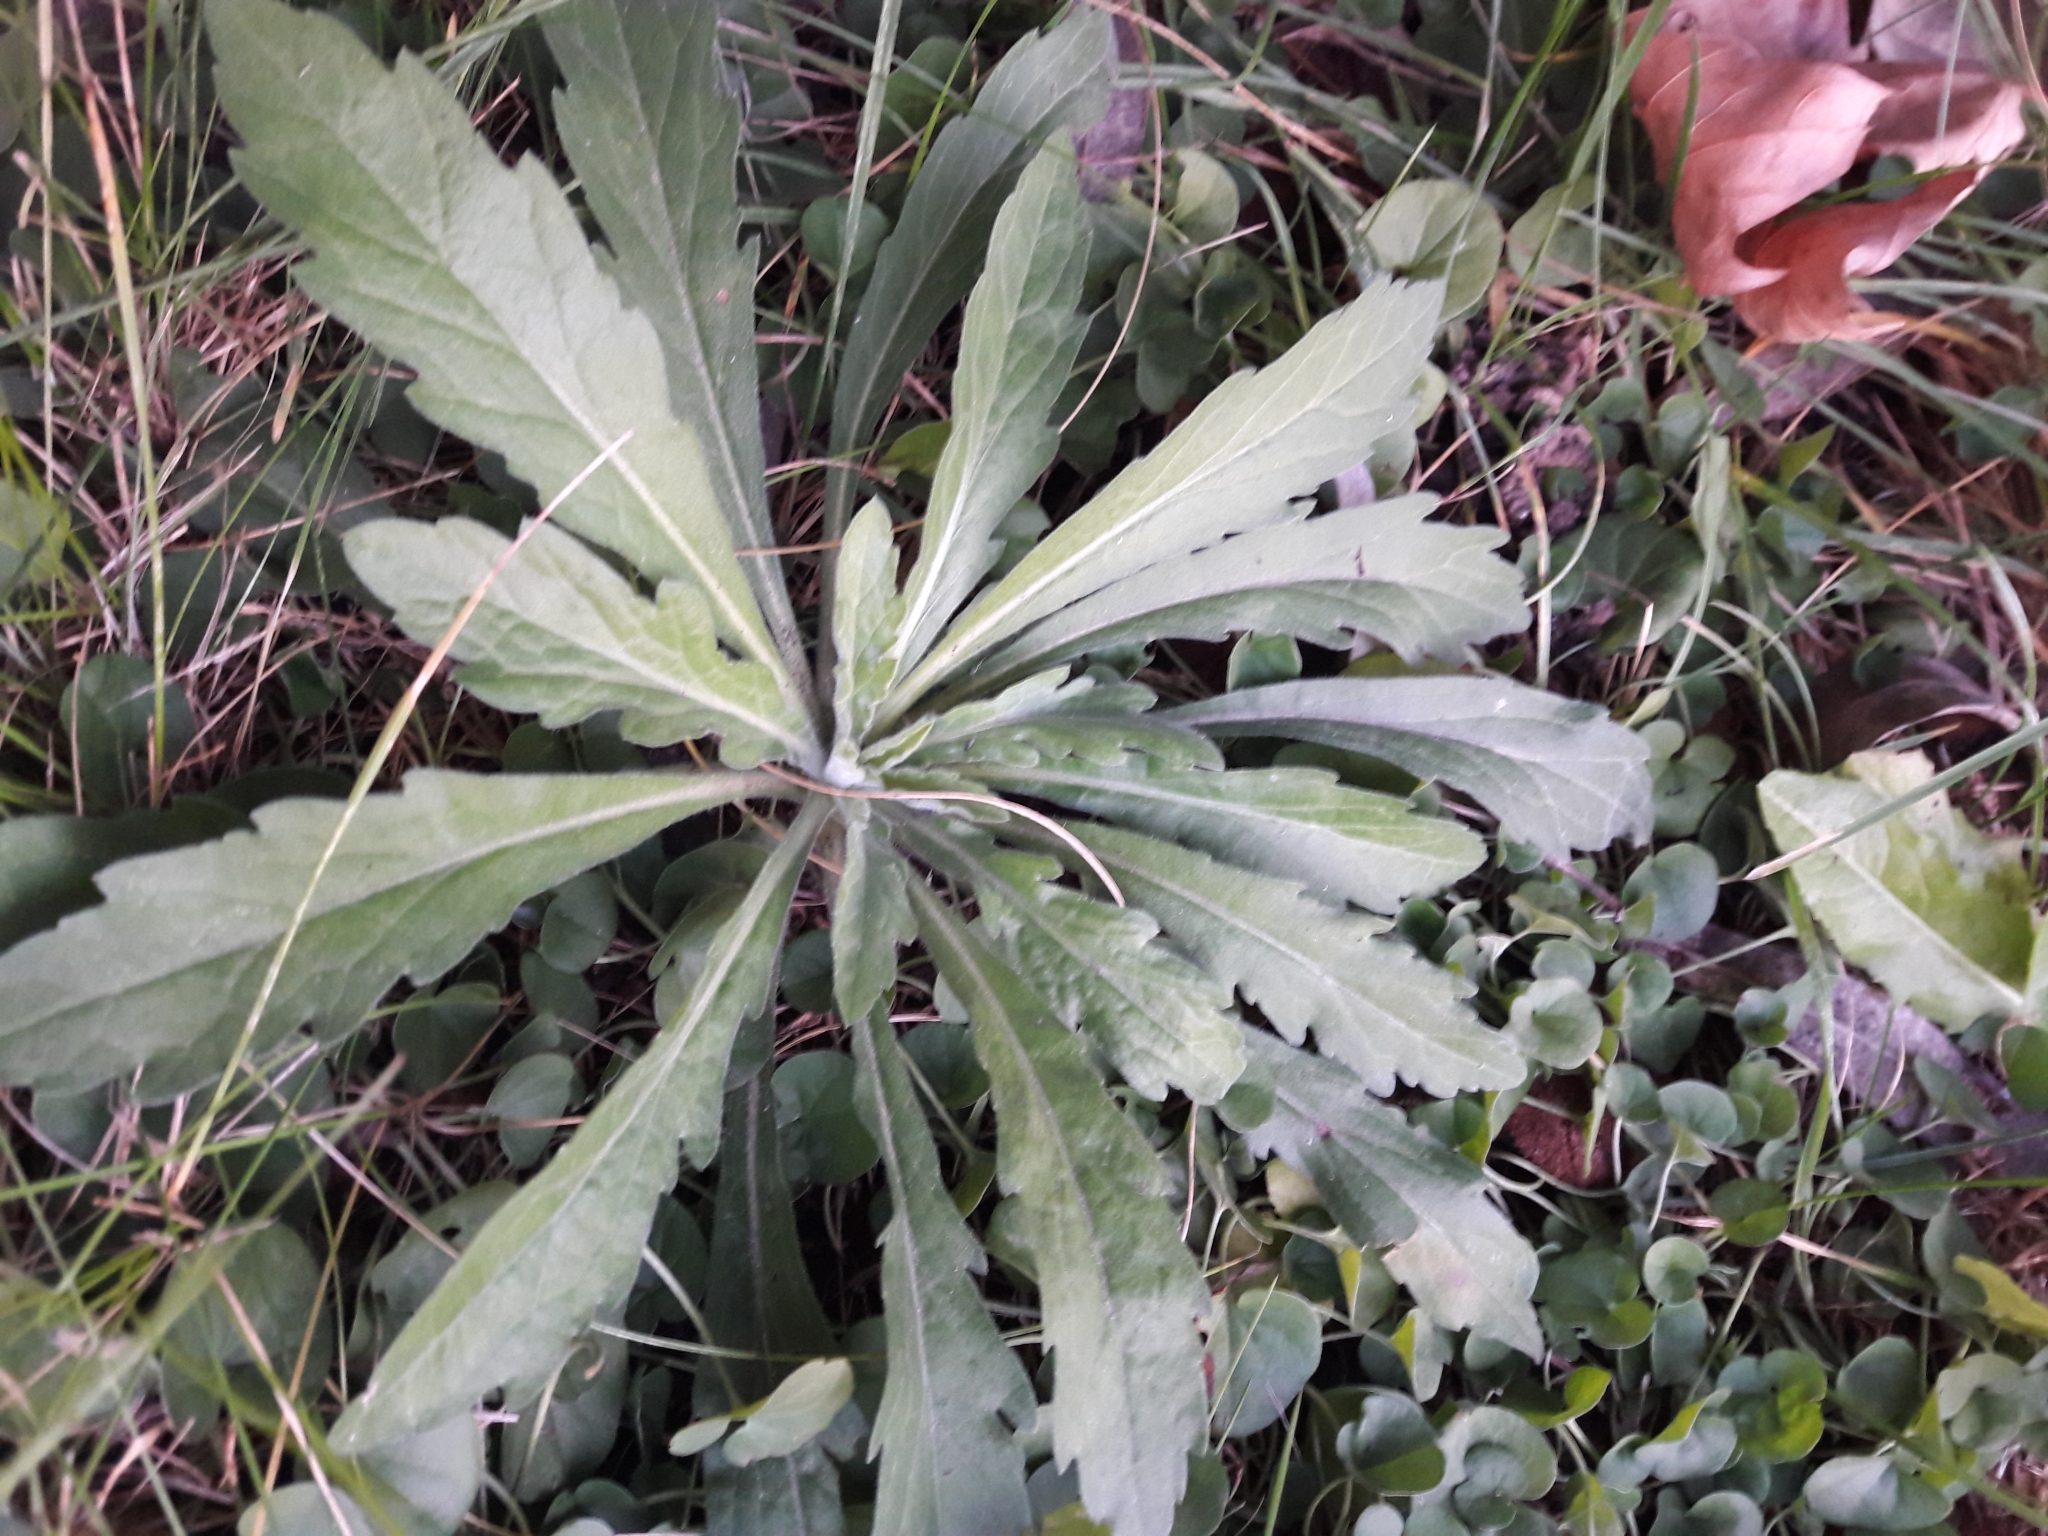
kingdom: Plantae
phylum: Tracheophyta
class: Magnoliopsida
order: Asterales
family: Asteraceae
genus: Erigeron
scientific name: Erigeron sumatrensis
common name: Daisy
